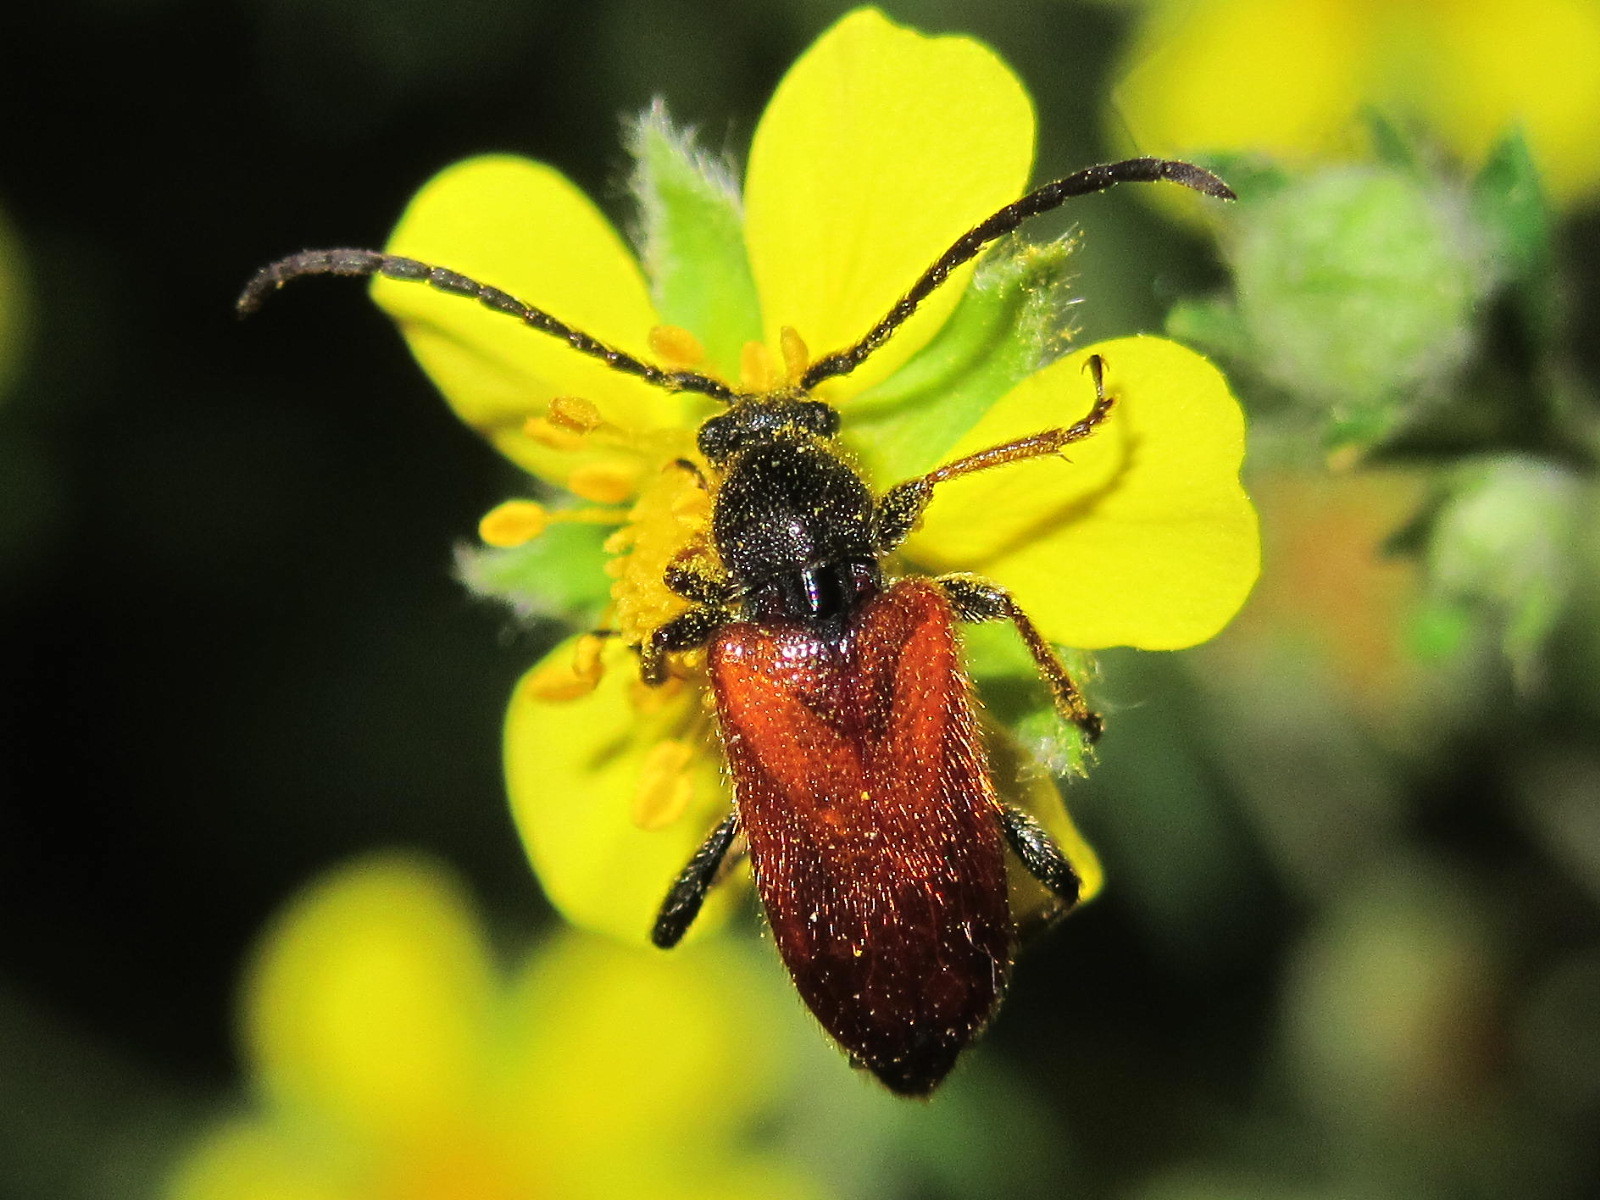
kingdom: Animalia
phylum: Arthropoda
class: Insecta
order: Coleoptera
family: Cerambycidae
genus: Pseudovadonia
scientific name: Pseudovadonia livida
